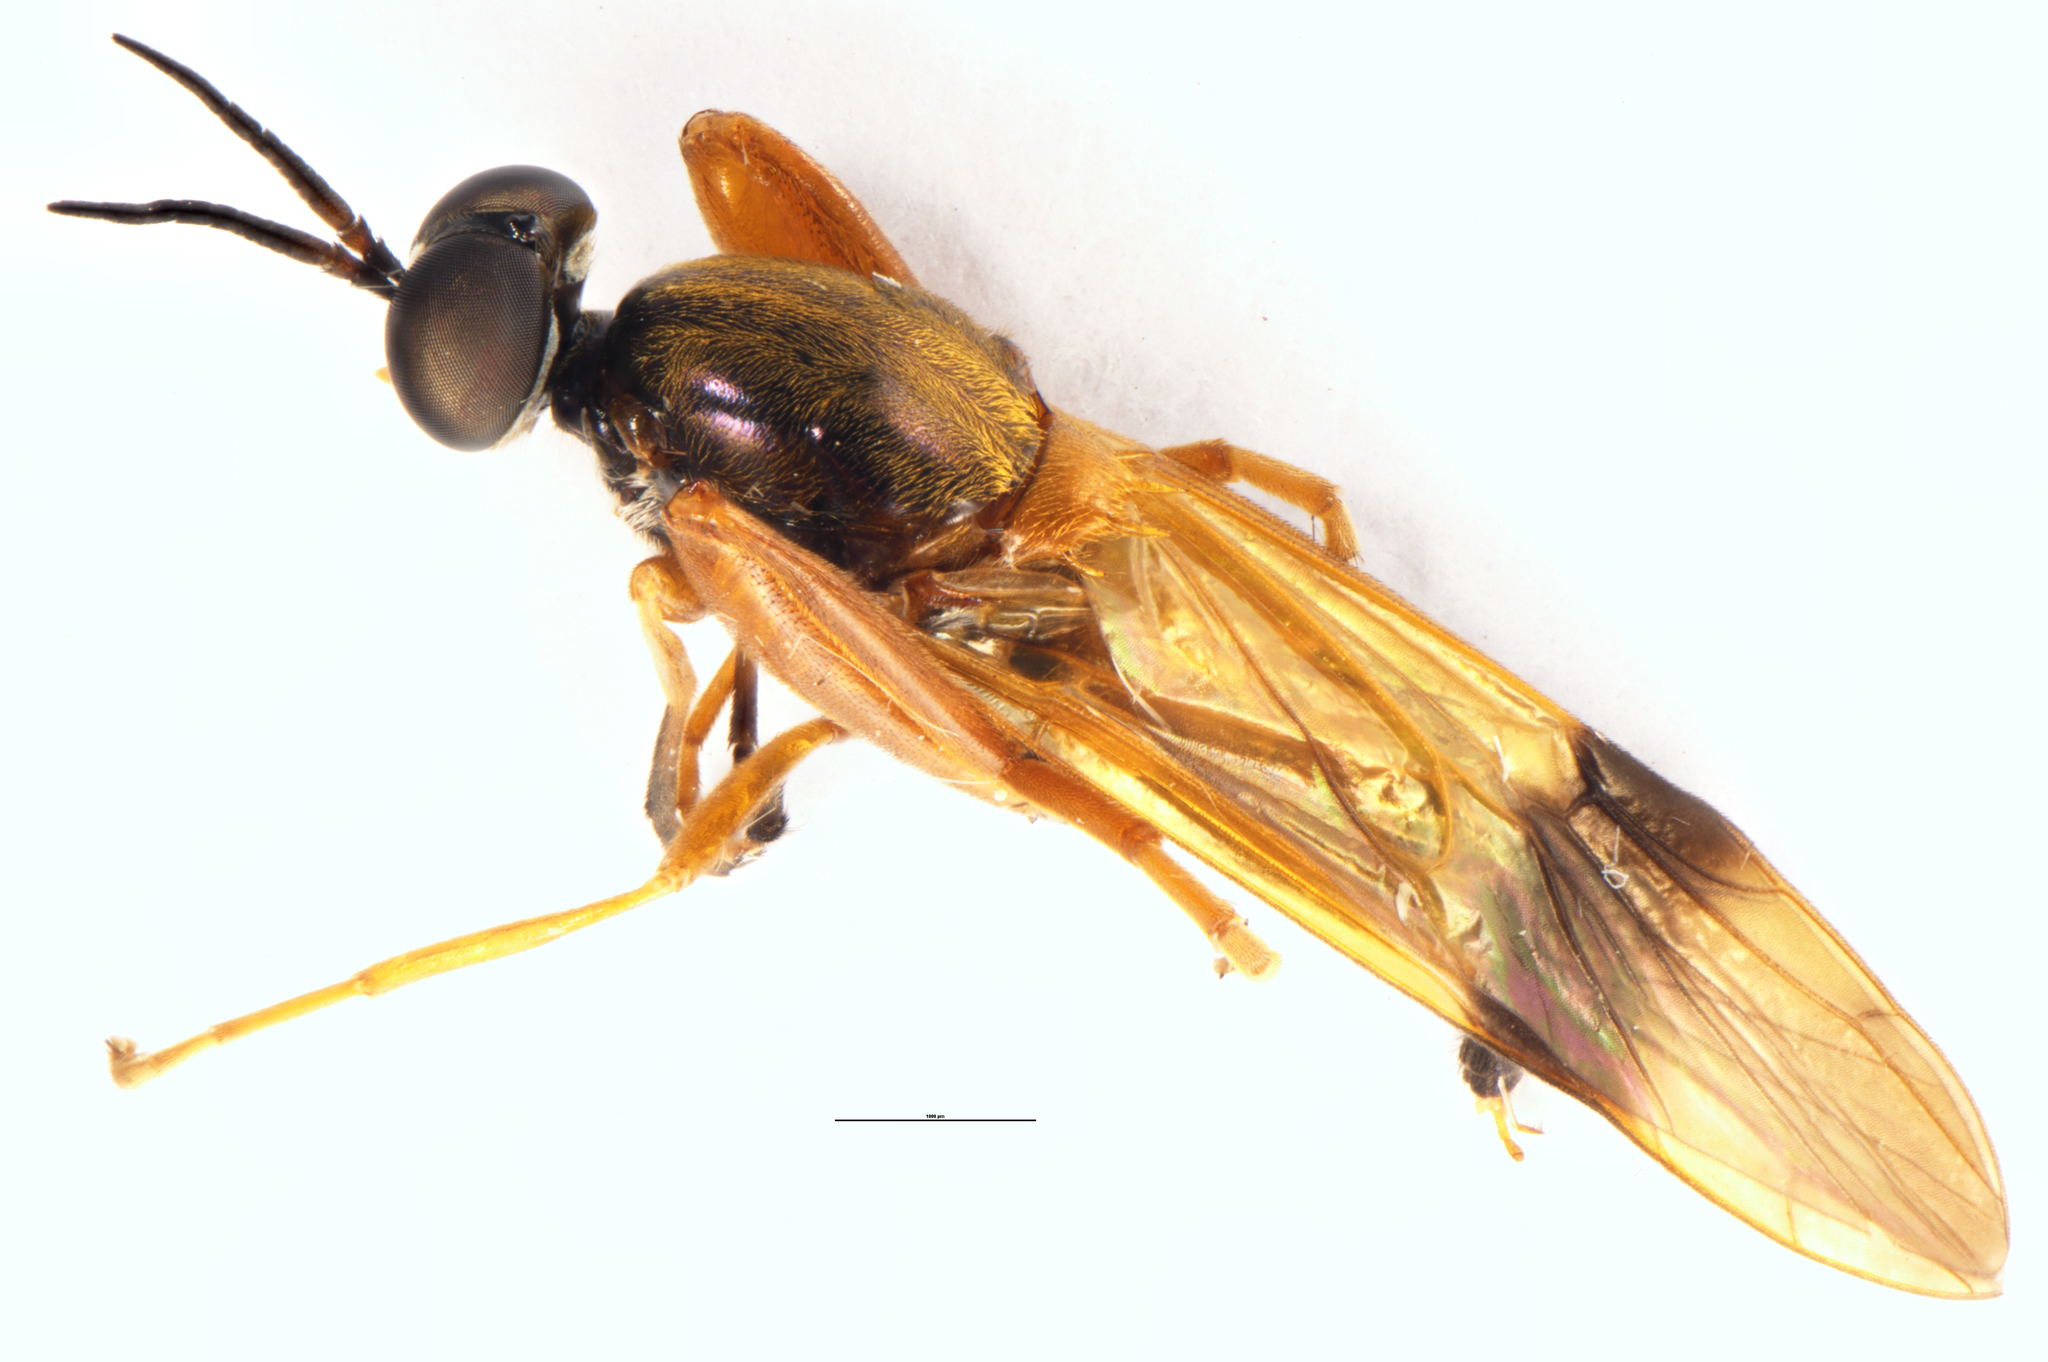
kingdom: Animalia
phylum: Arthropoda
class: Insecta
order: Diptera
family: Stratiomyidae
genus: Benhamyia
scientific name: Benhamyia apicalis
